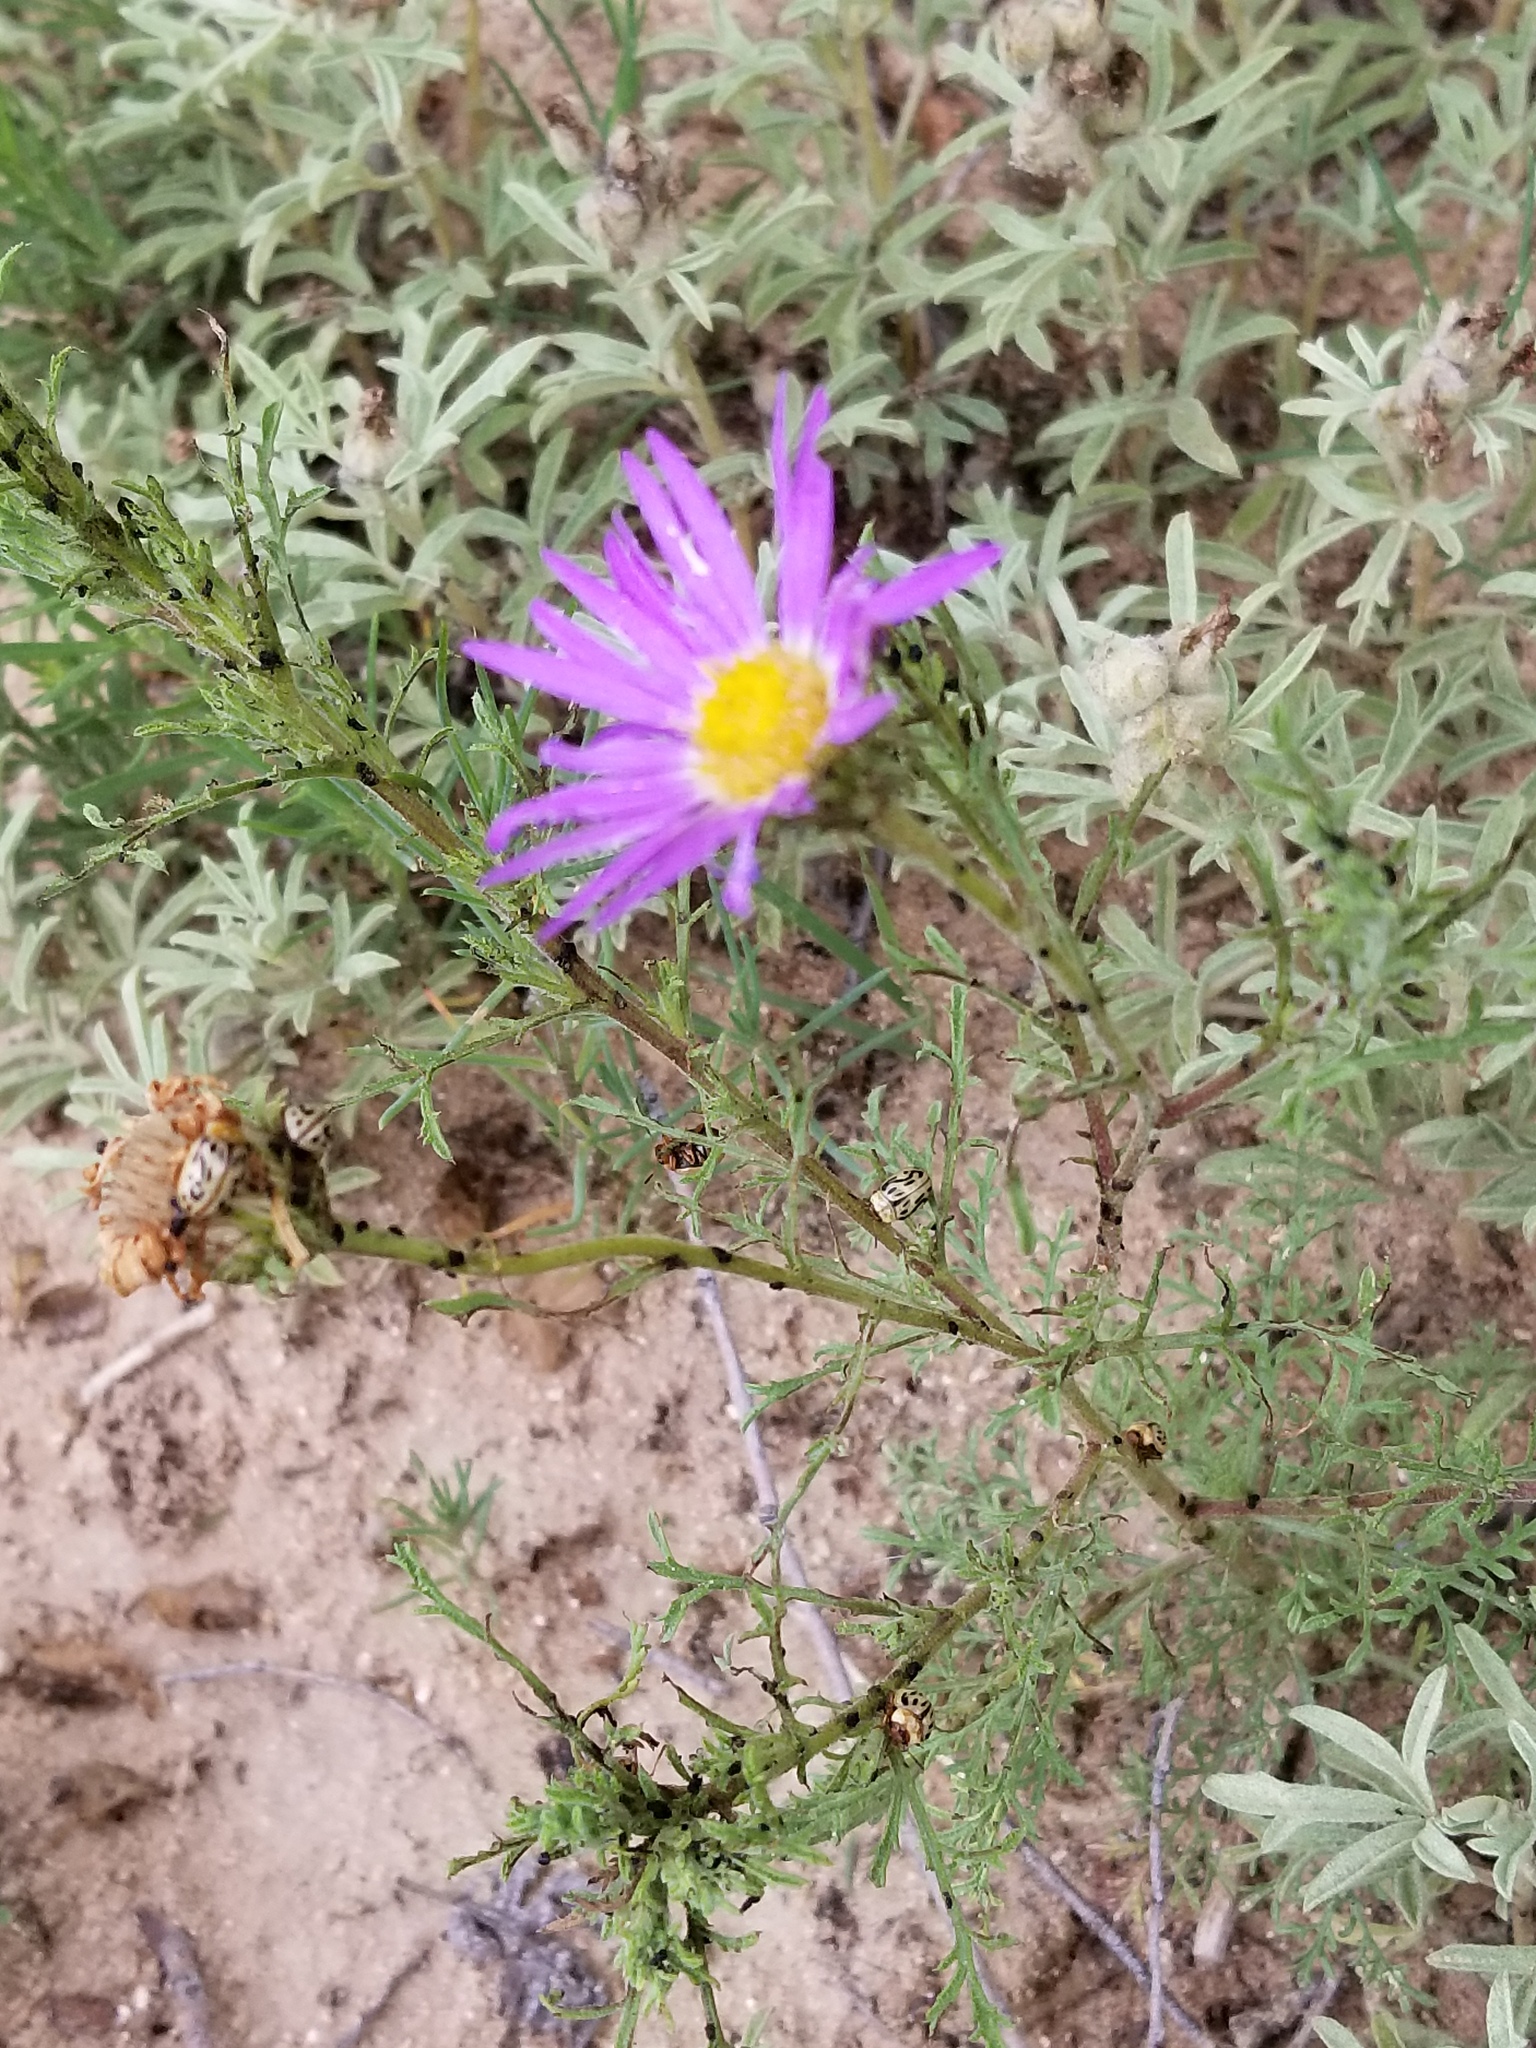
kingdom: Animalia
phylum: Arthropoda
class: Insecta
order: Coleoptera
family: Chrysomelidae
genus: Calligrapha
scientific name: Calligrapha
